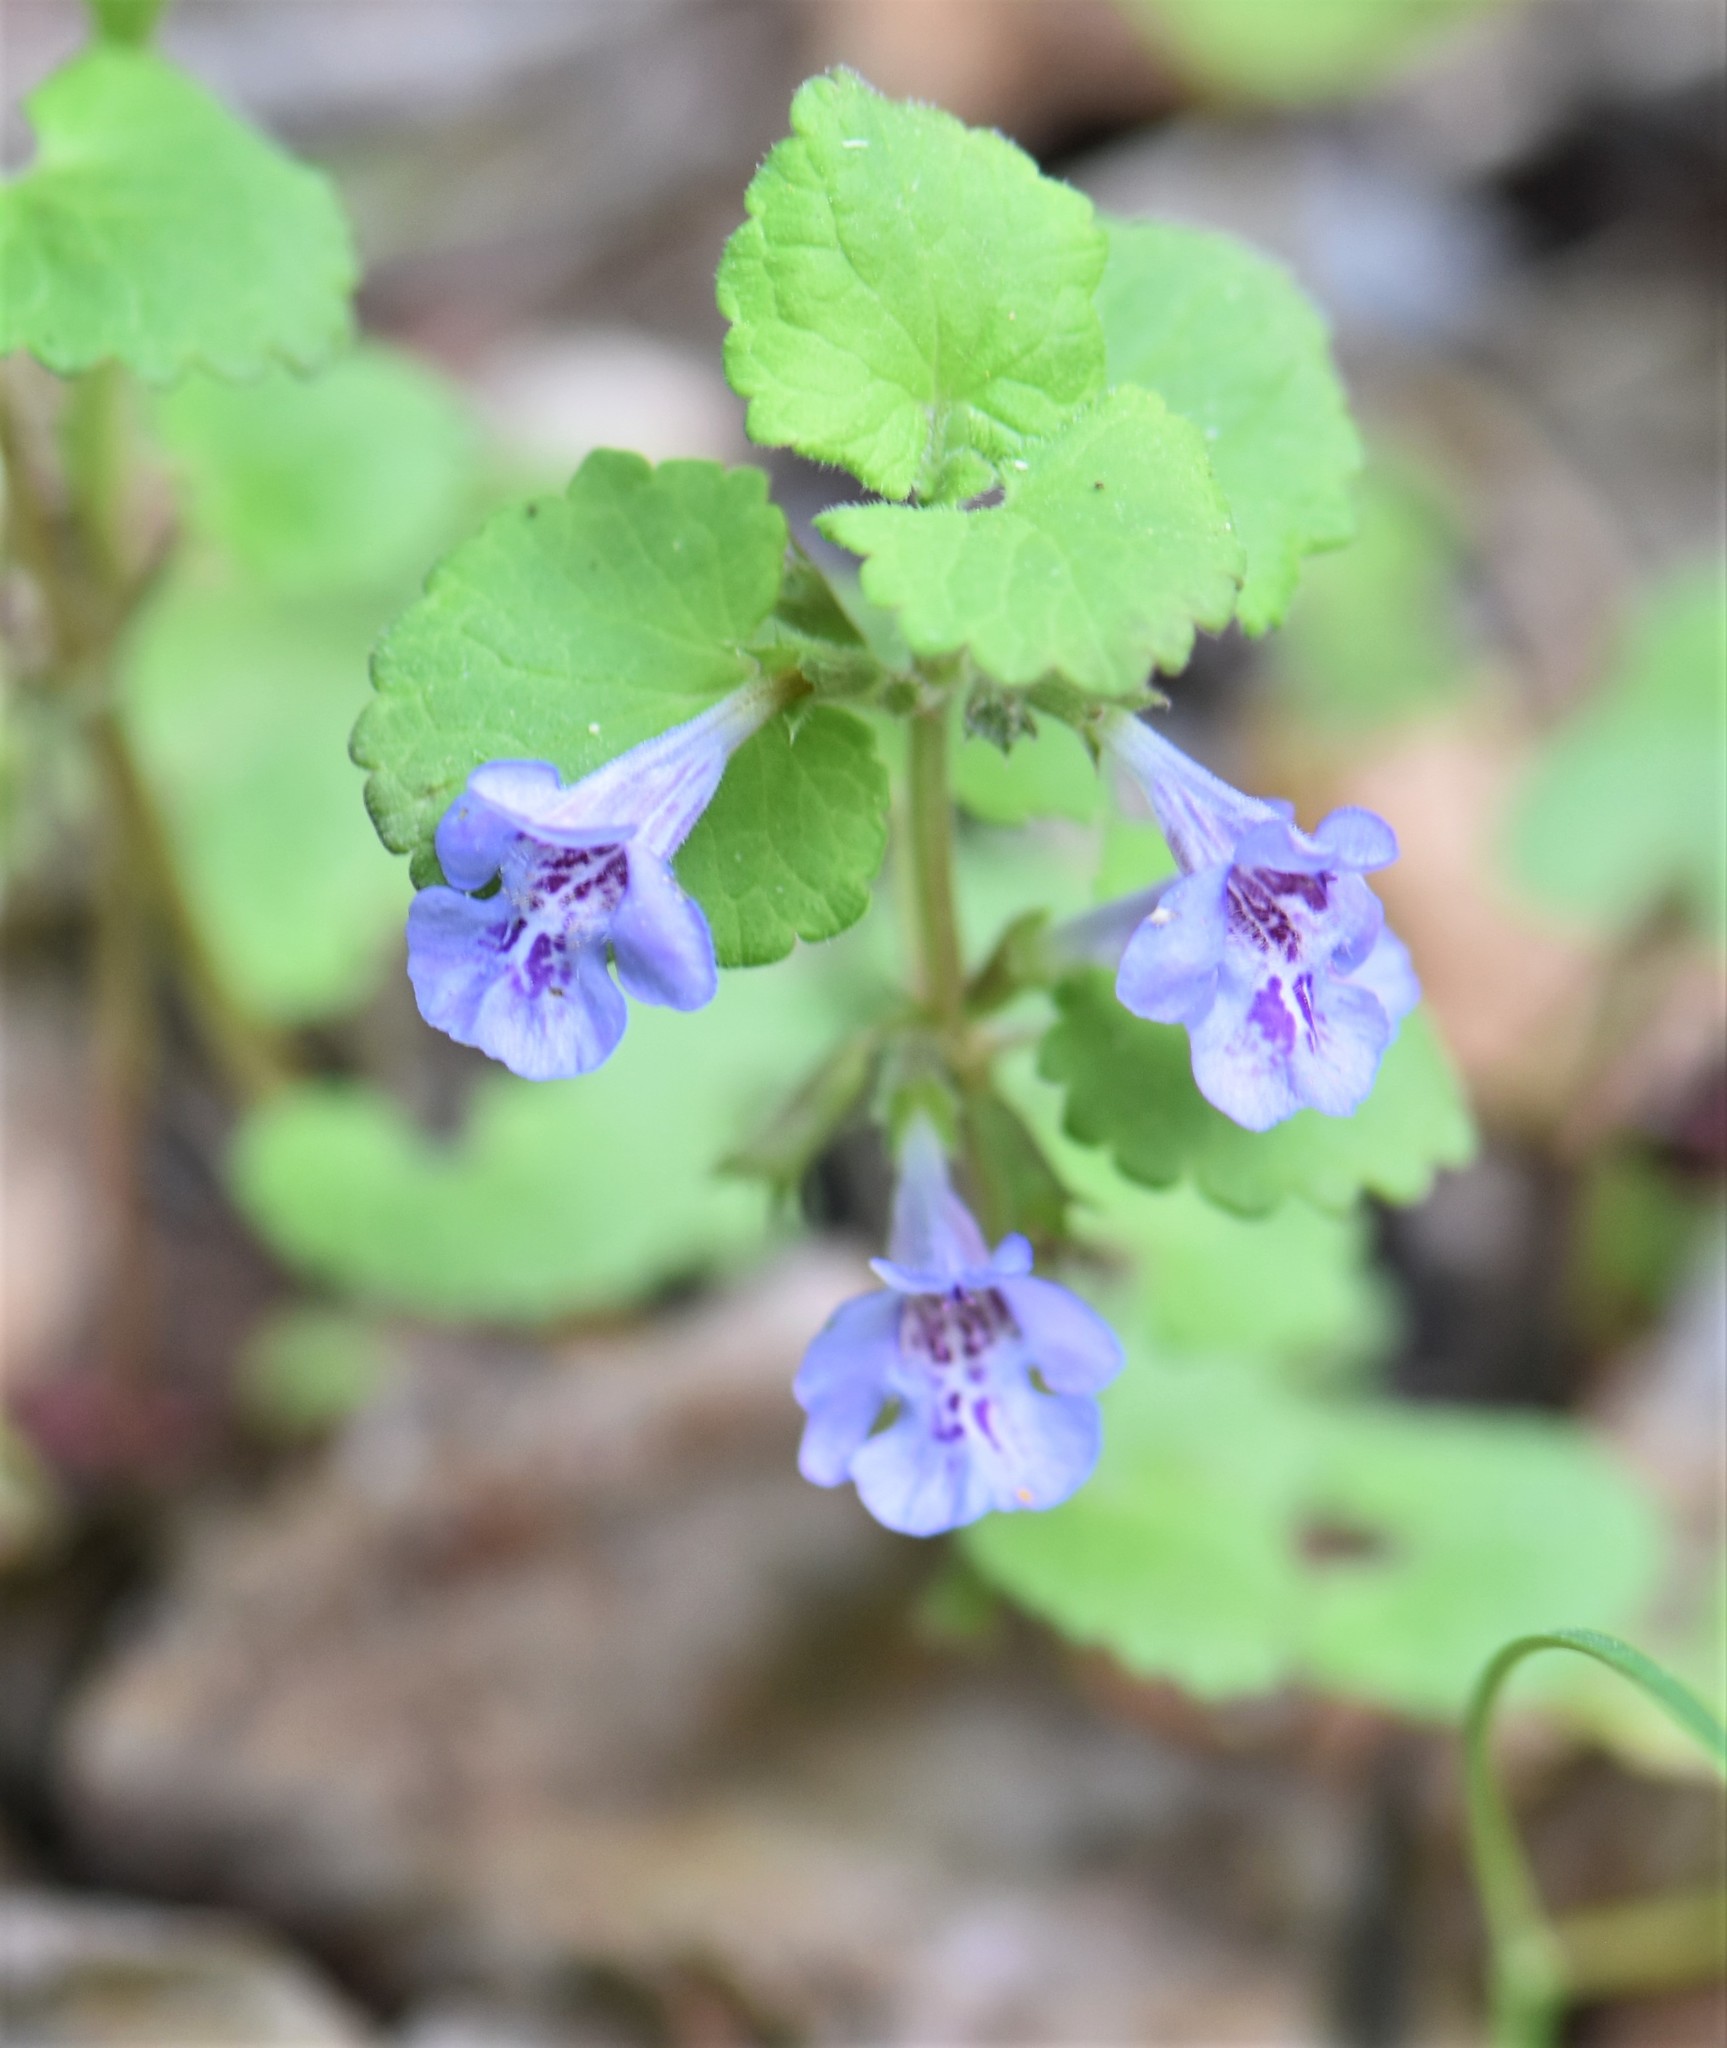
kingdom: Plantae
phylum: Tracheophyta
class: Magnoliopsida
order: Lamiales
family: Lamiaceae
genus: Glechoma
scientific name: Glechoma hederacea
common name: Ground ivy
